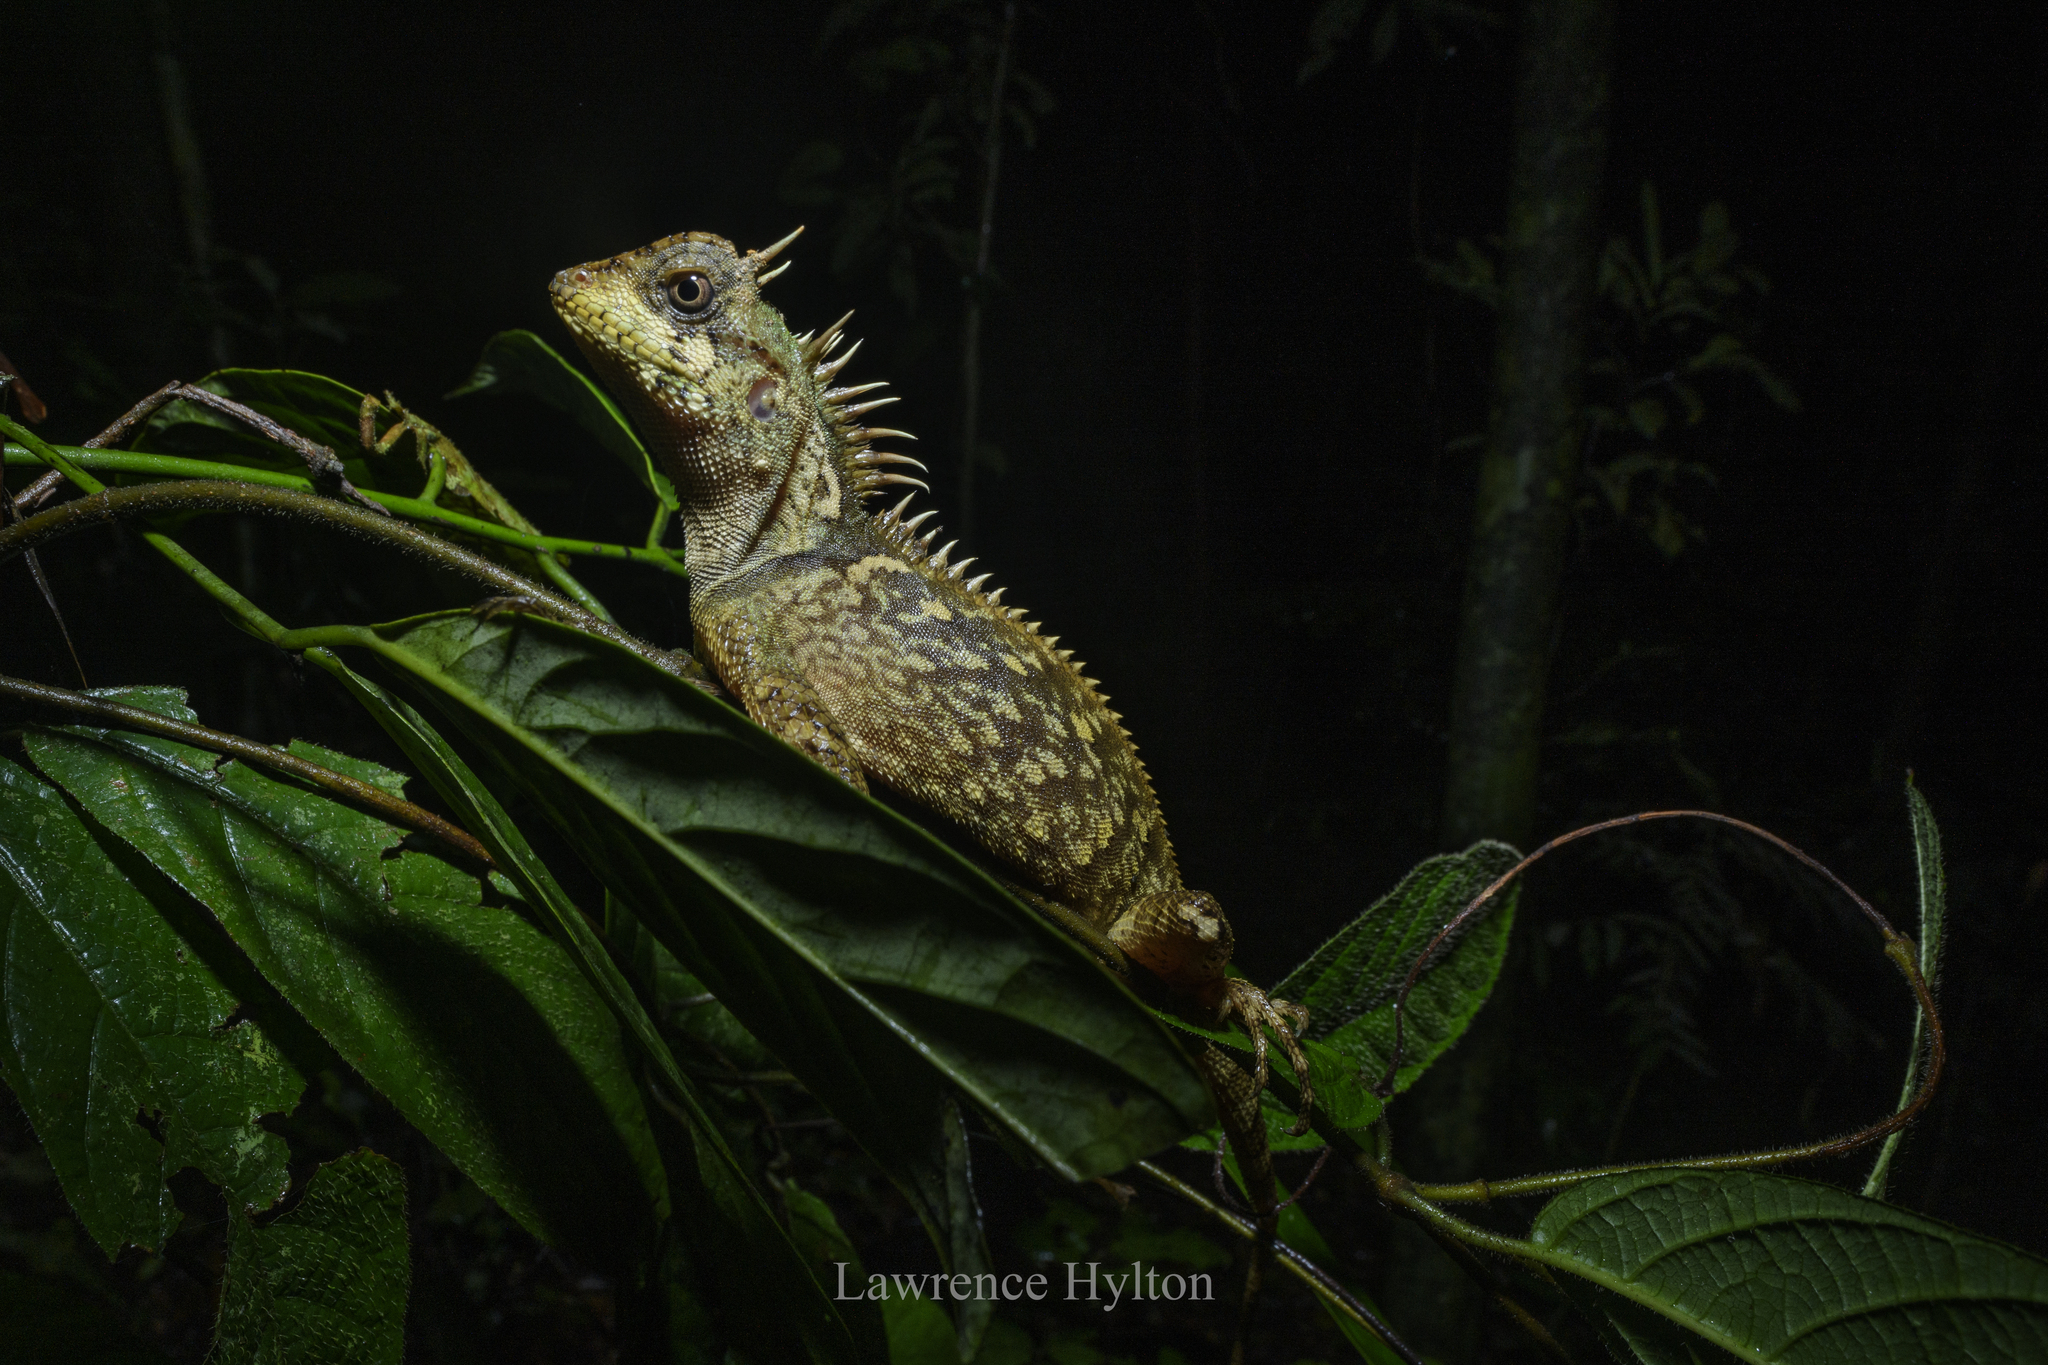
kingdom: Animalia
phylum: Chordata
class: Squamata
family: Agamidae
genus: Acanthosaura
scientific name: Acanthosaura phuketensis
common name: Phuket horned tree agamid
